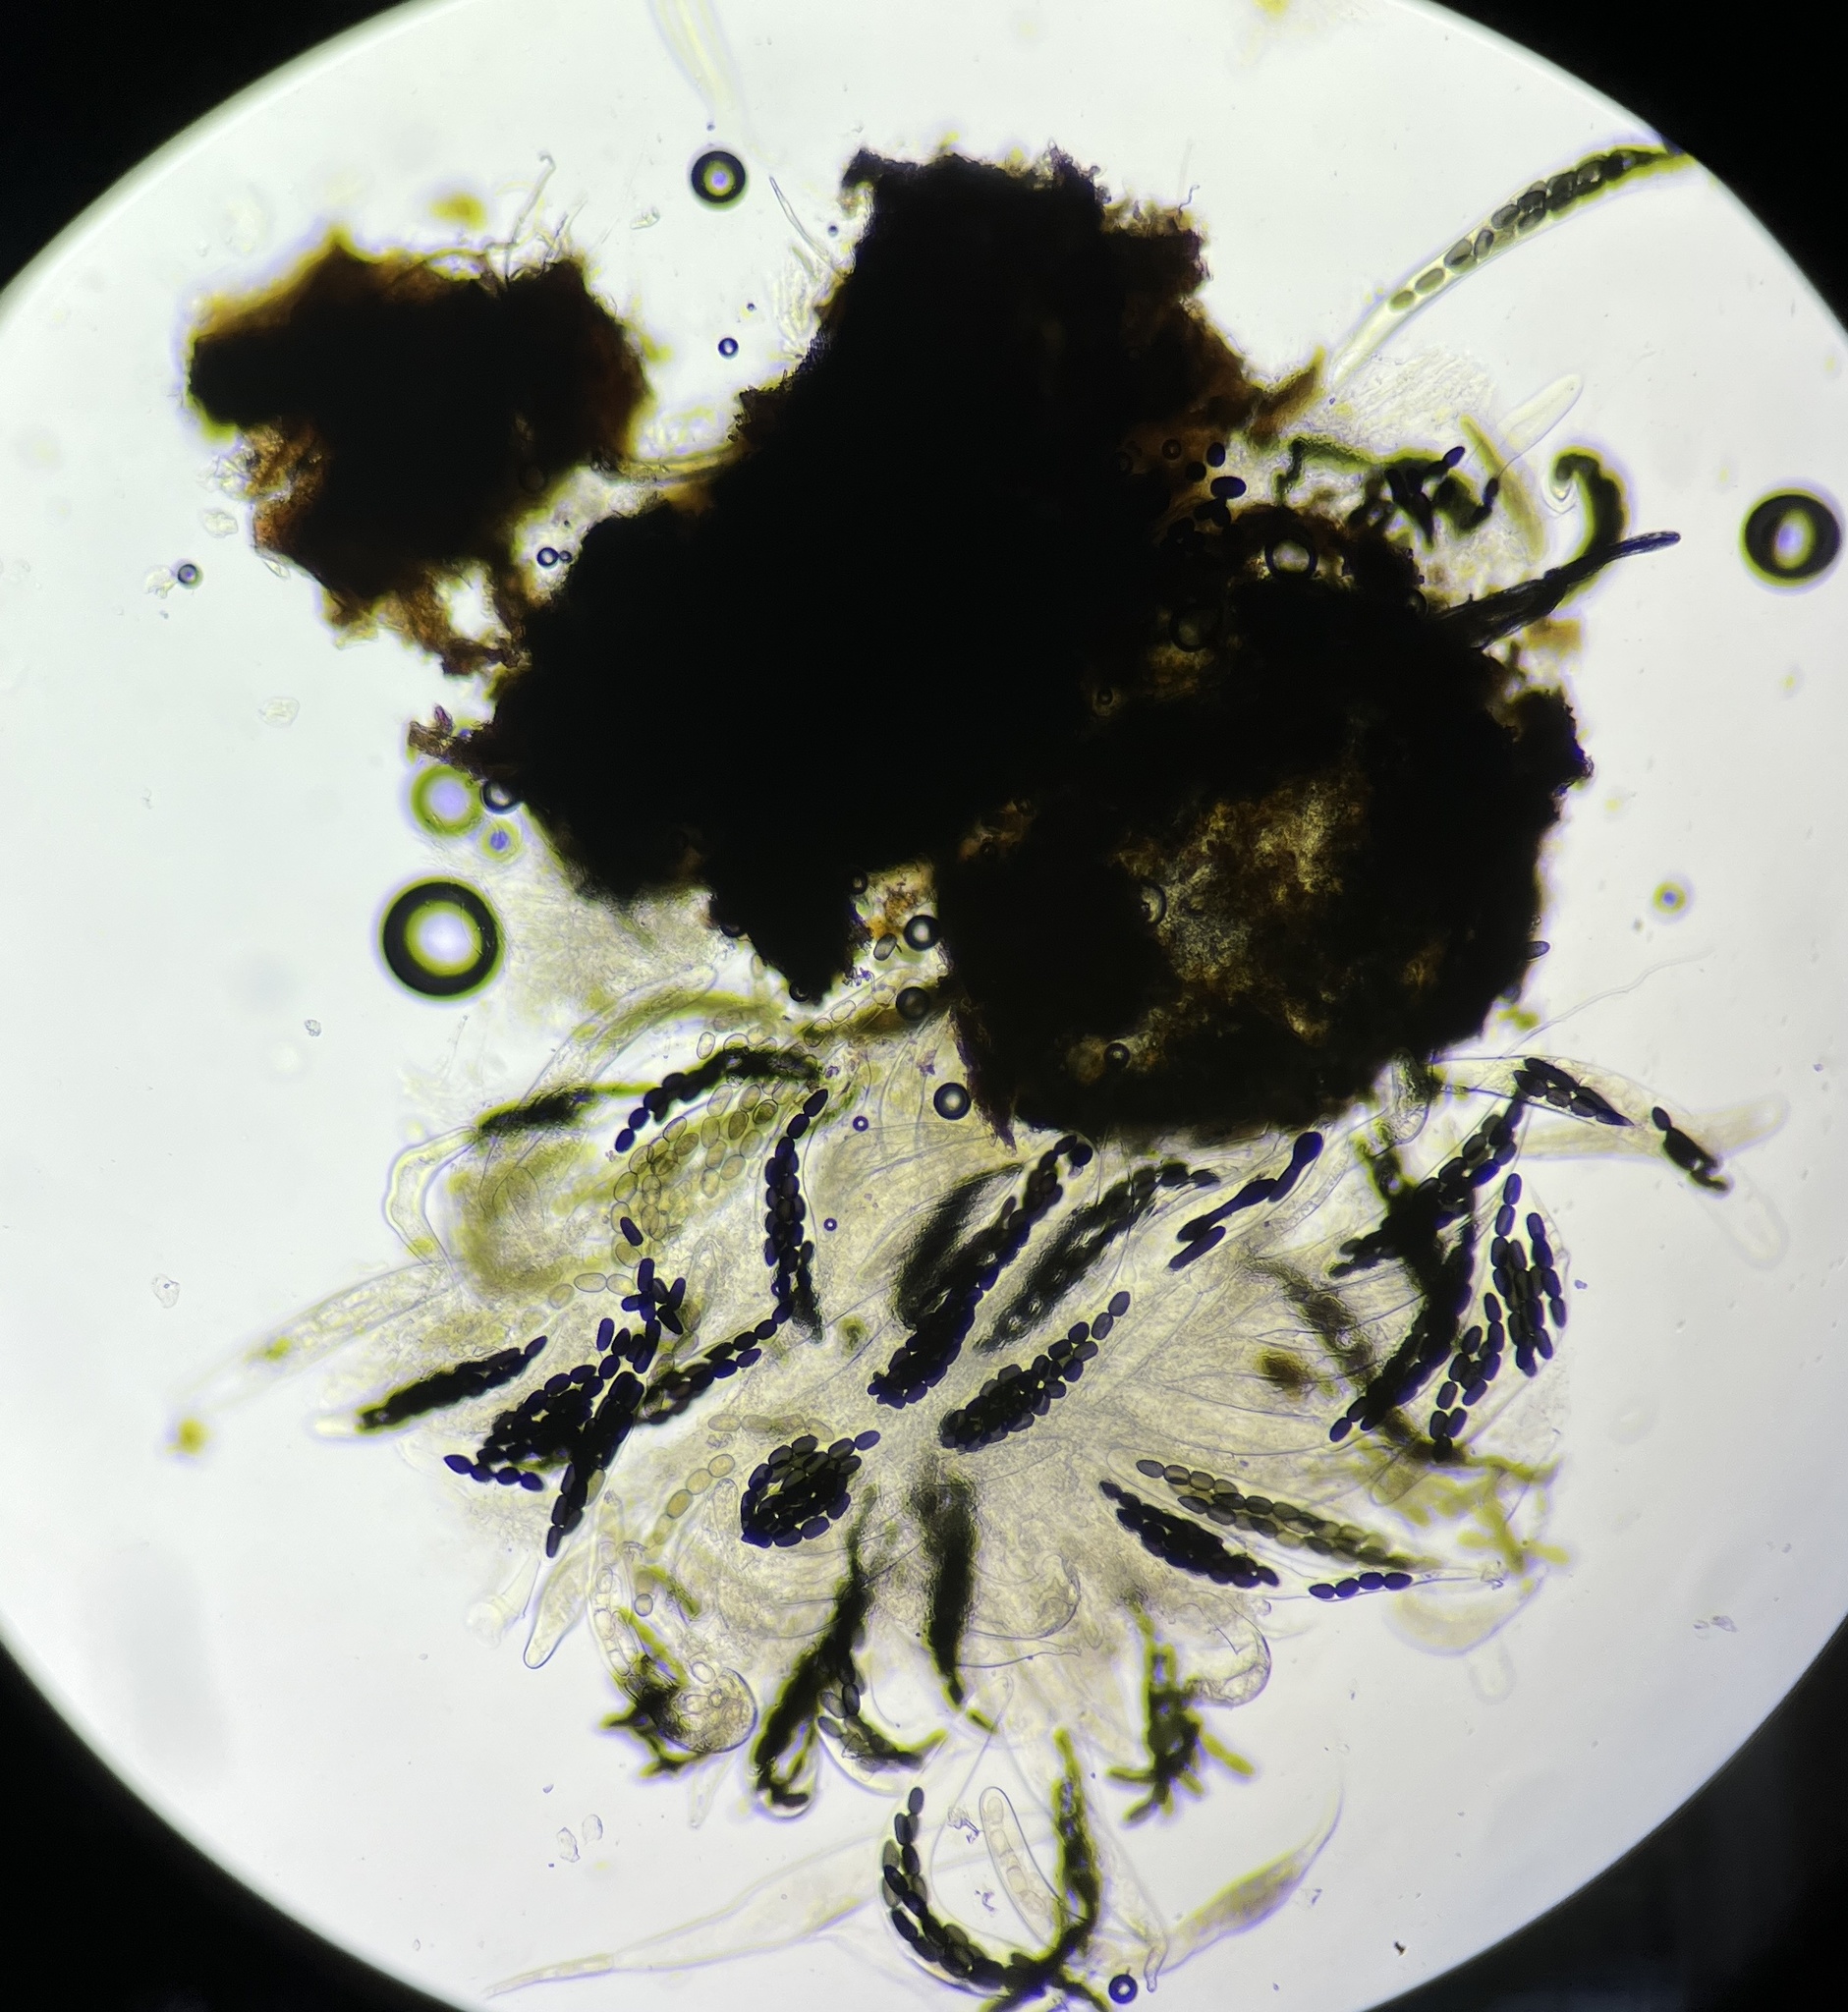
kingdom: Fungi
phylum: Ascomycota
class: Dothideomycetes
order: Pleosporales
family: Sporormiaceae
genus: Preussia
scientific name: Preussia longisporopsis
